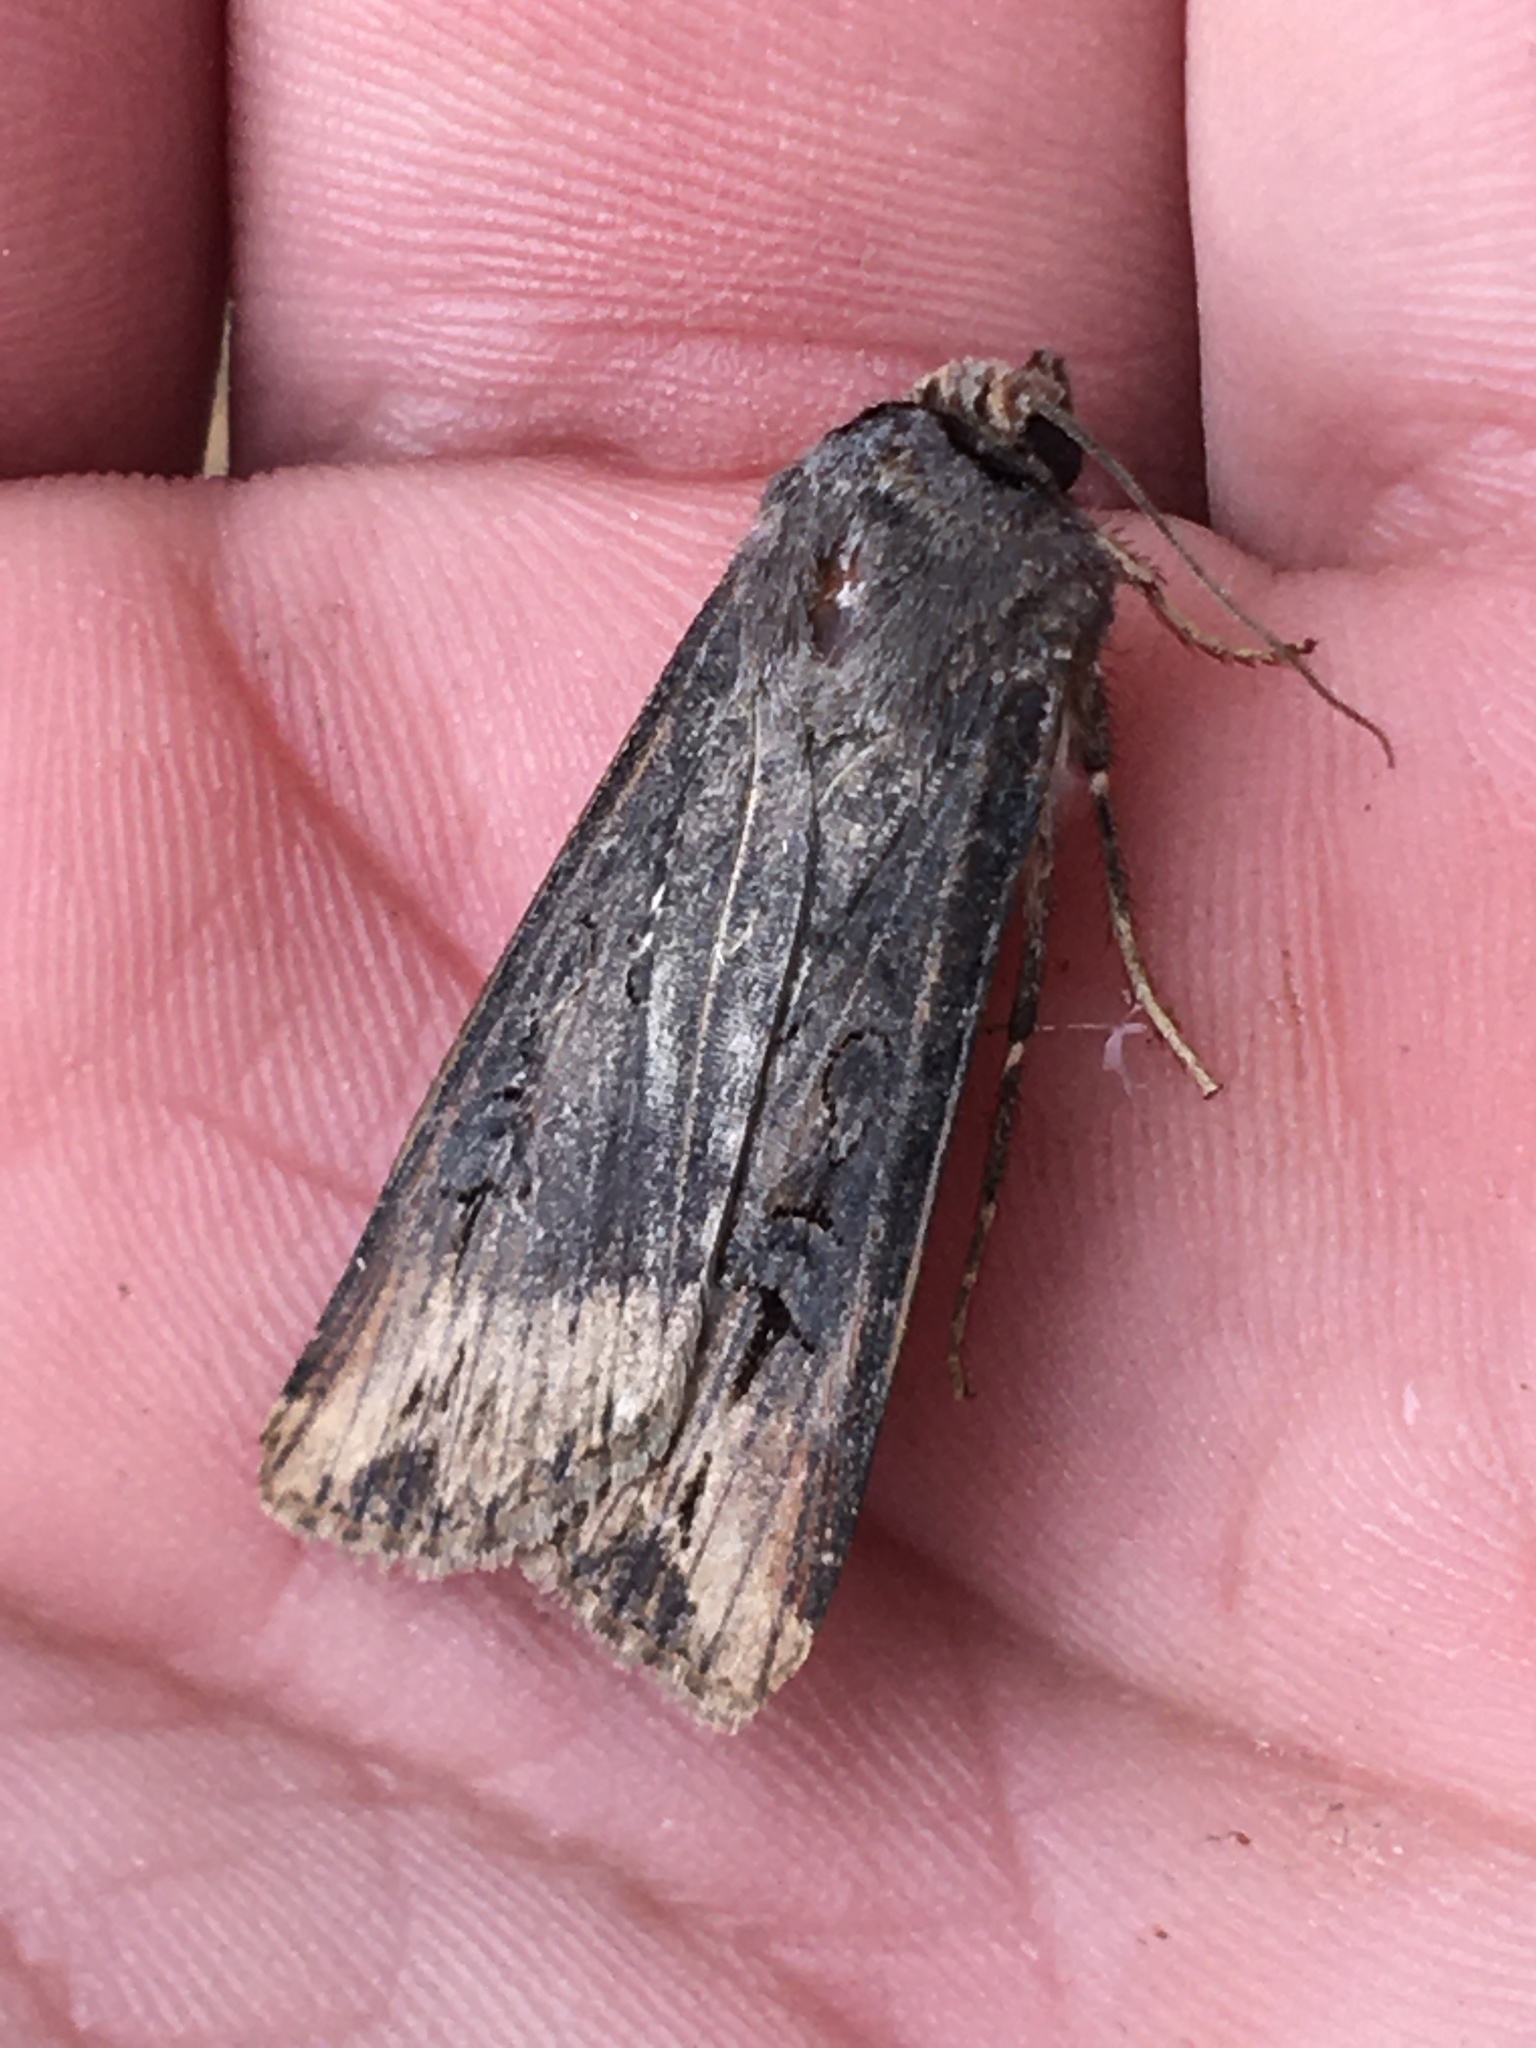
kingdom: Animalia
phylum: Arthropoda
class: Insecta
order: Lepidoptera
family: Noctuidae
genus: Agrotis
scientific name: Agrotis ipsilon
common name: Dark sword-grass
